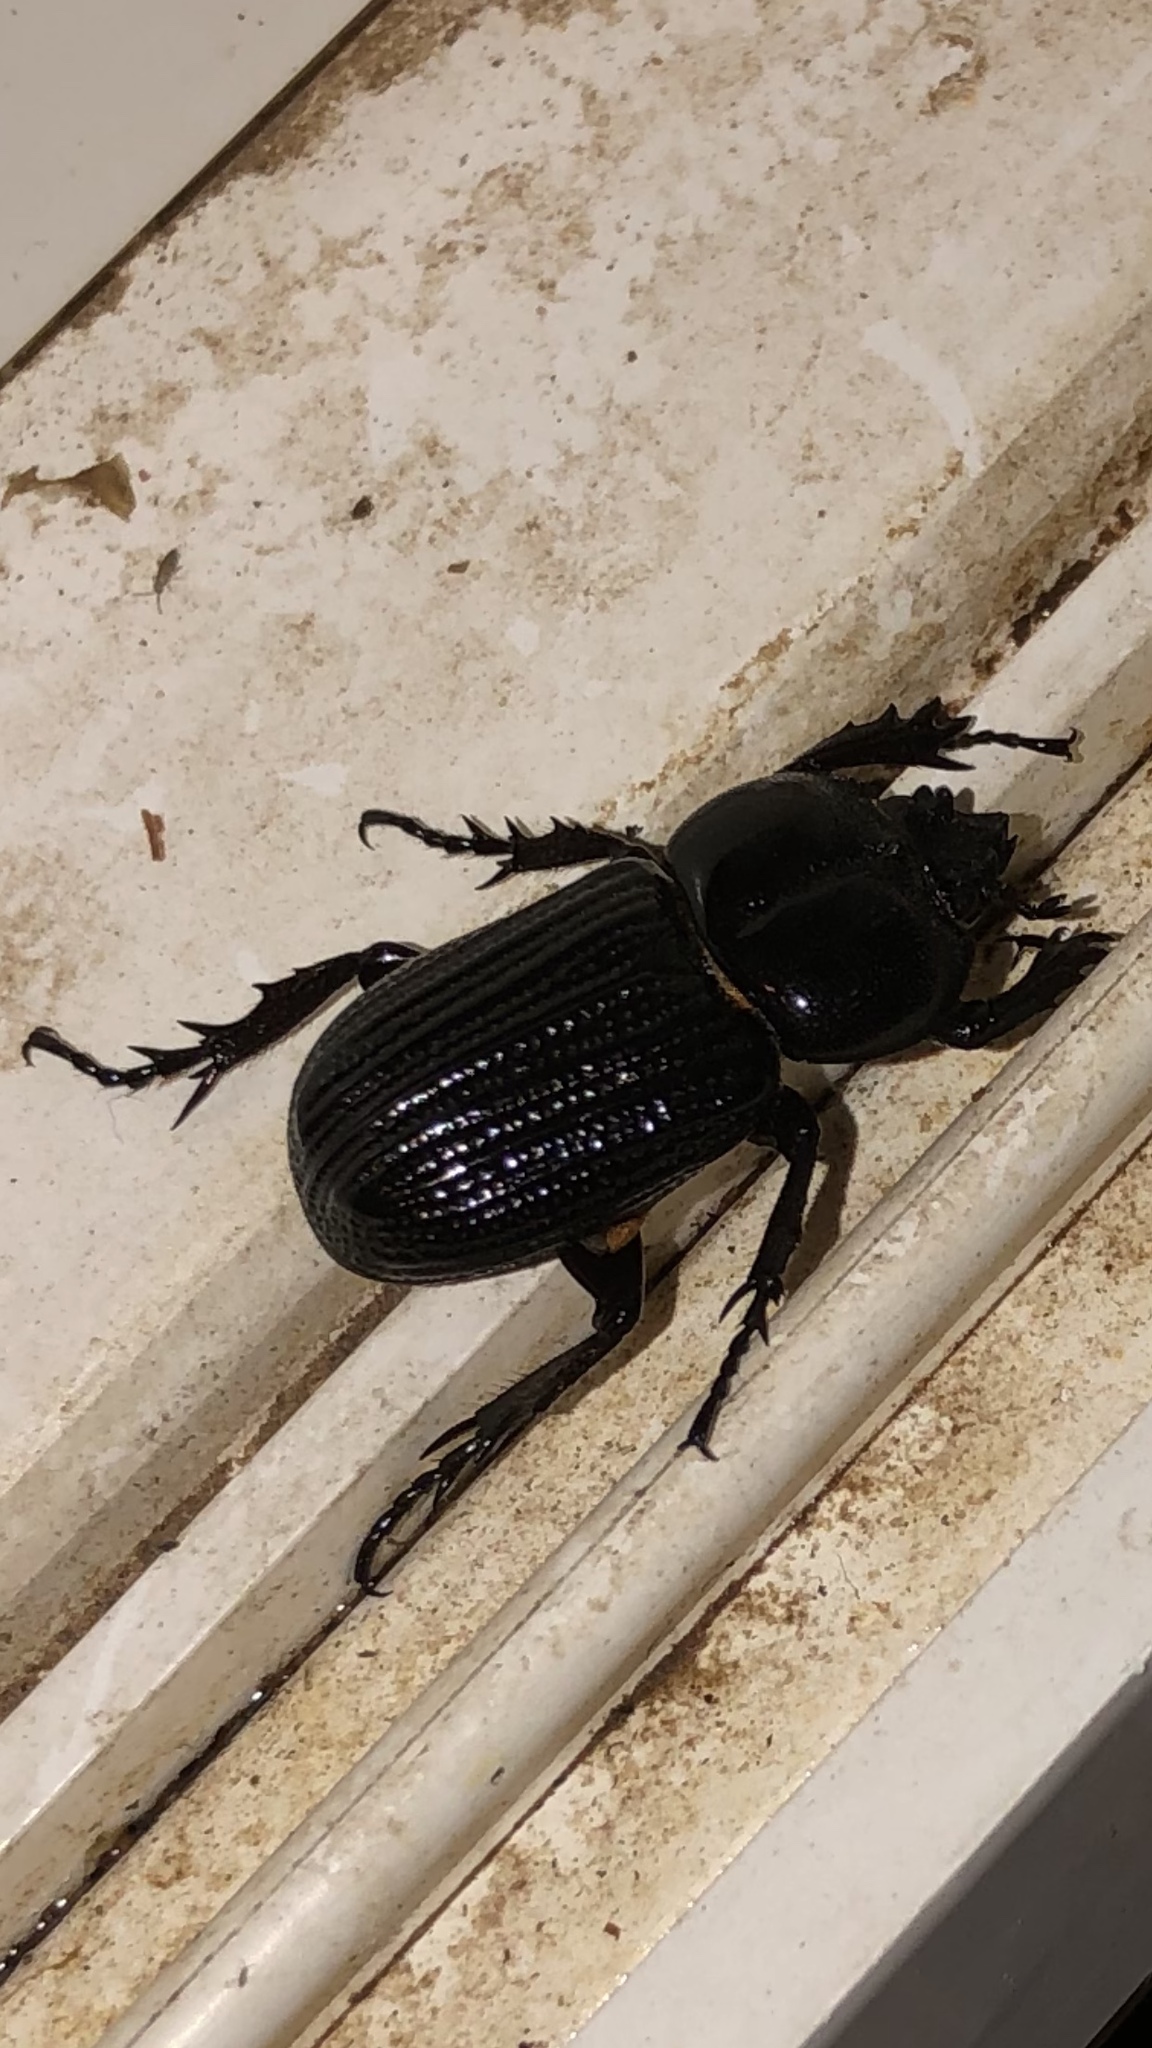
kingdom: Animalia
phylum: Arthropoda
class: Insecta
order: Coleoptera
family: Scarabaeidae
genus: Phileurus
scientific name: Phileurus valgus
